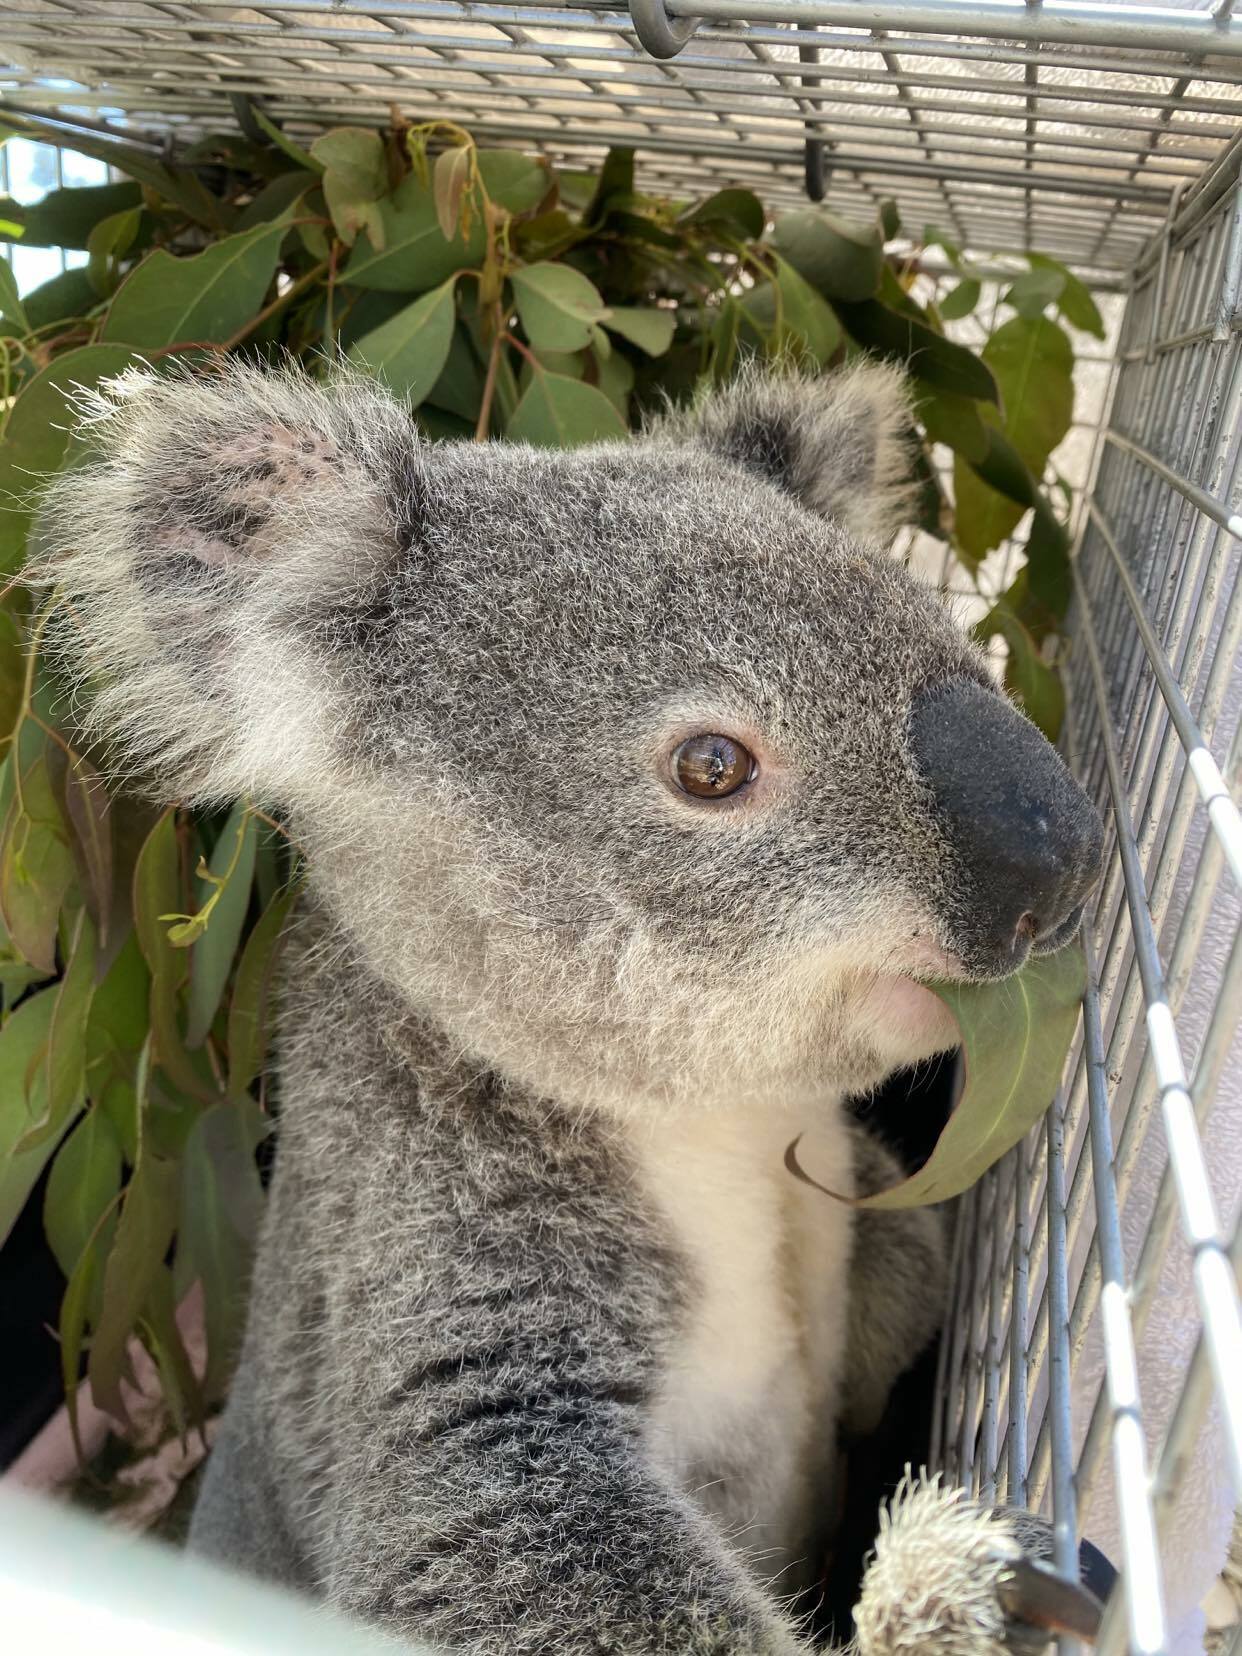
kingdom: Animalia
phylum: Chordata
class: Mammalia
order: Diprotodontia
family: Phascolarctidae
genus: Phascolarctos
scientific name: Phascolarctos cinereus
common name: Koala
